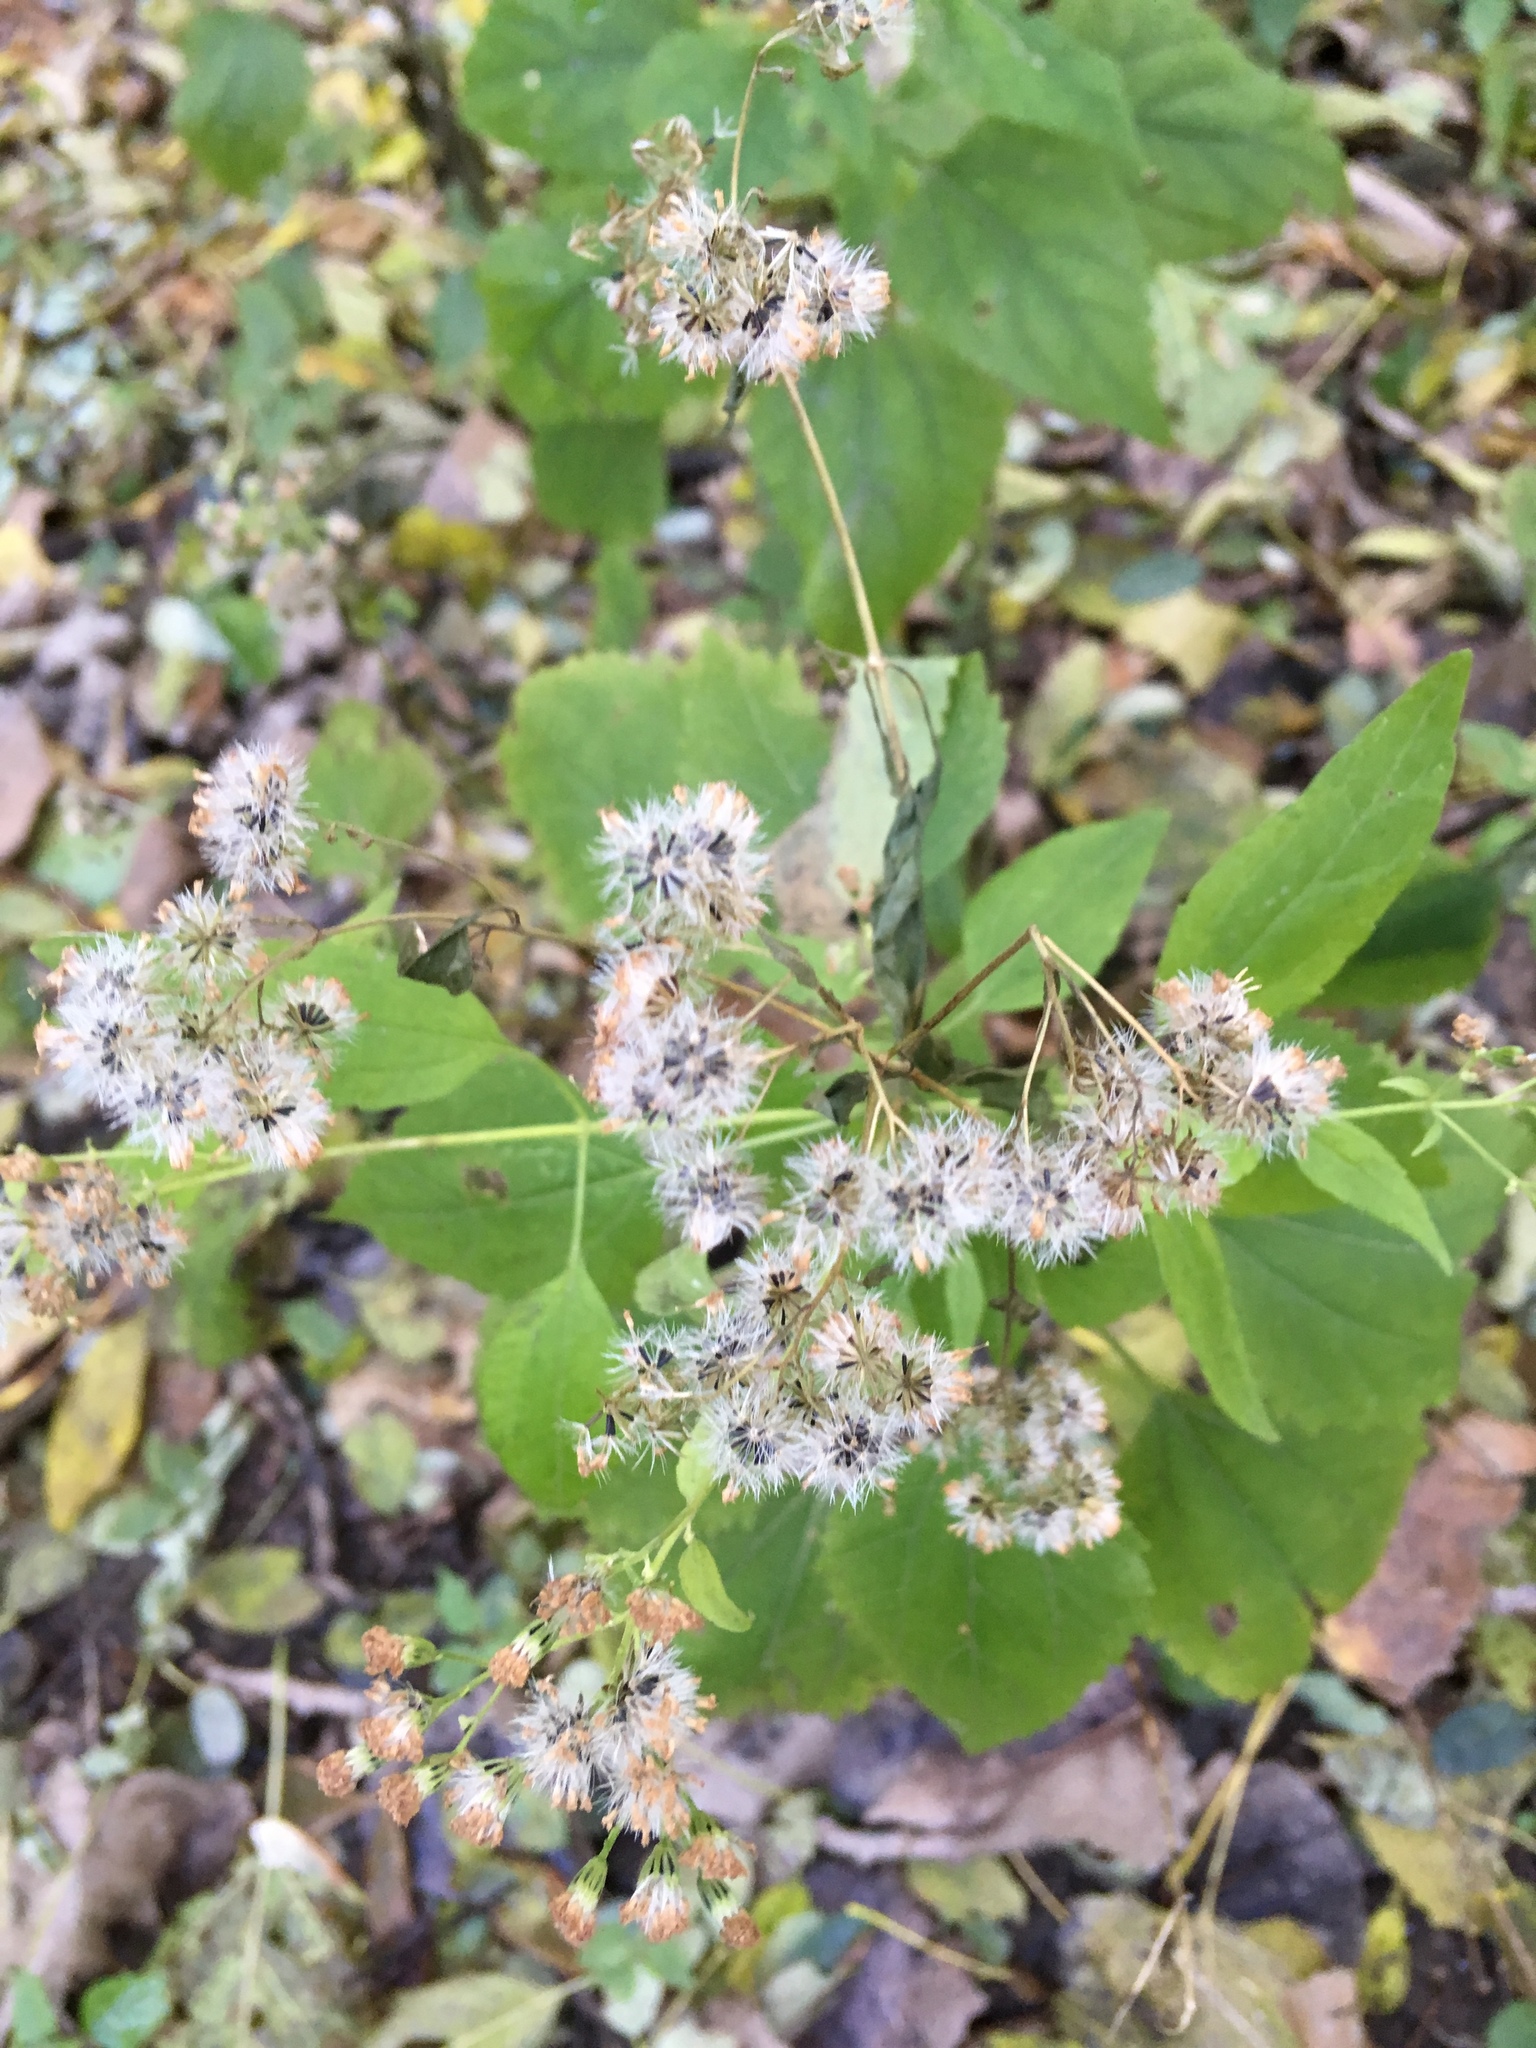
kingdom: Plantae
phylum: Tracheophyta
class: Magnoliopsida
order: Asterales
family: Asteraceae
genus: Ageratina
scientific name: Ageratina altissima
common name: White snakeroot
